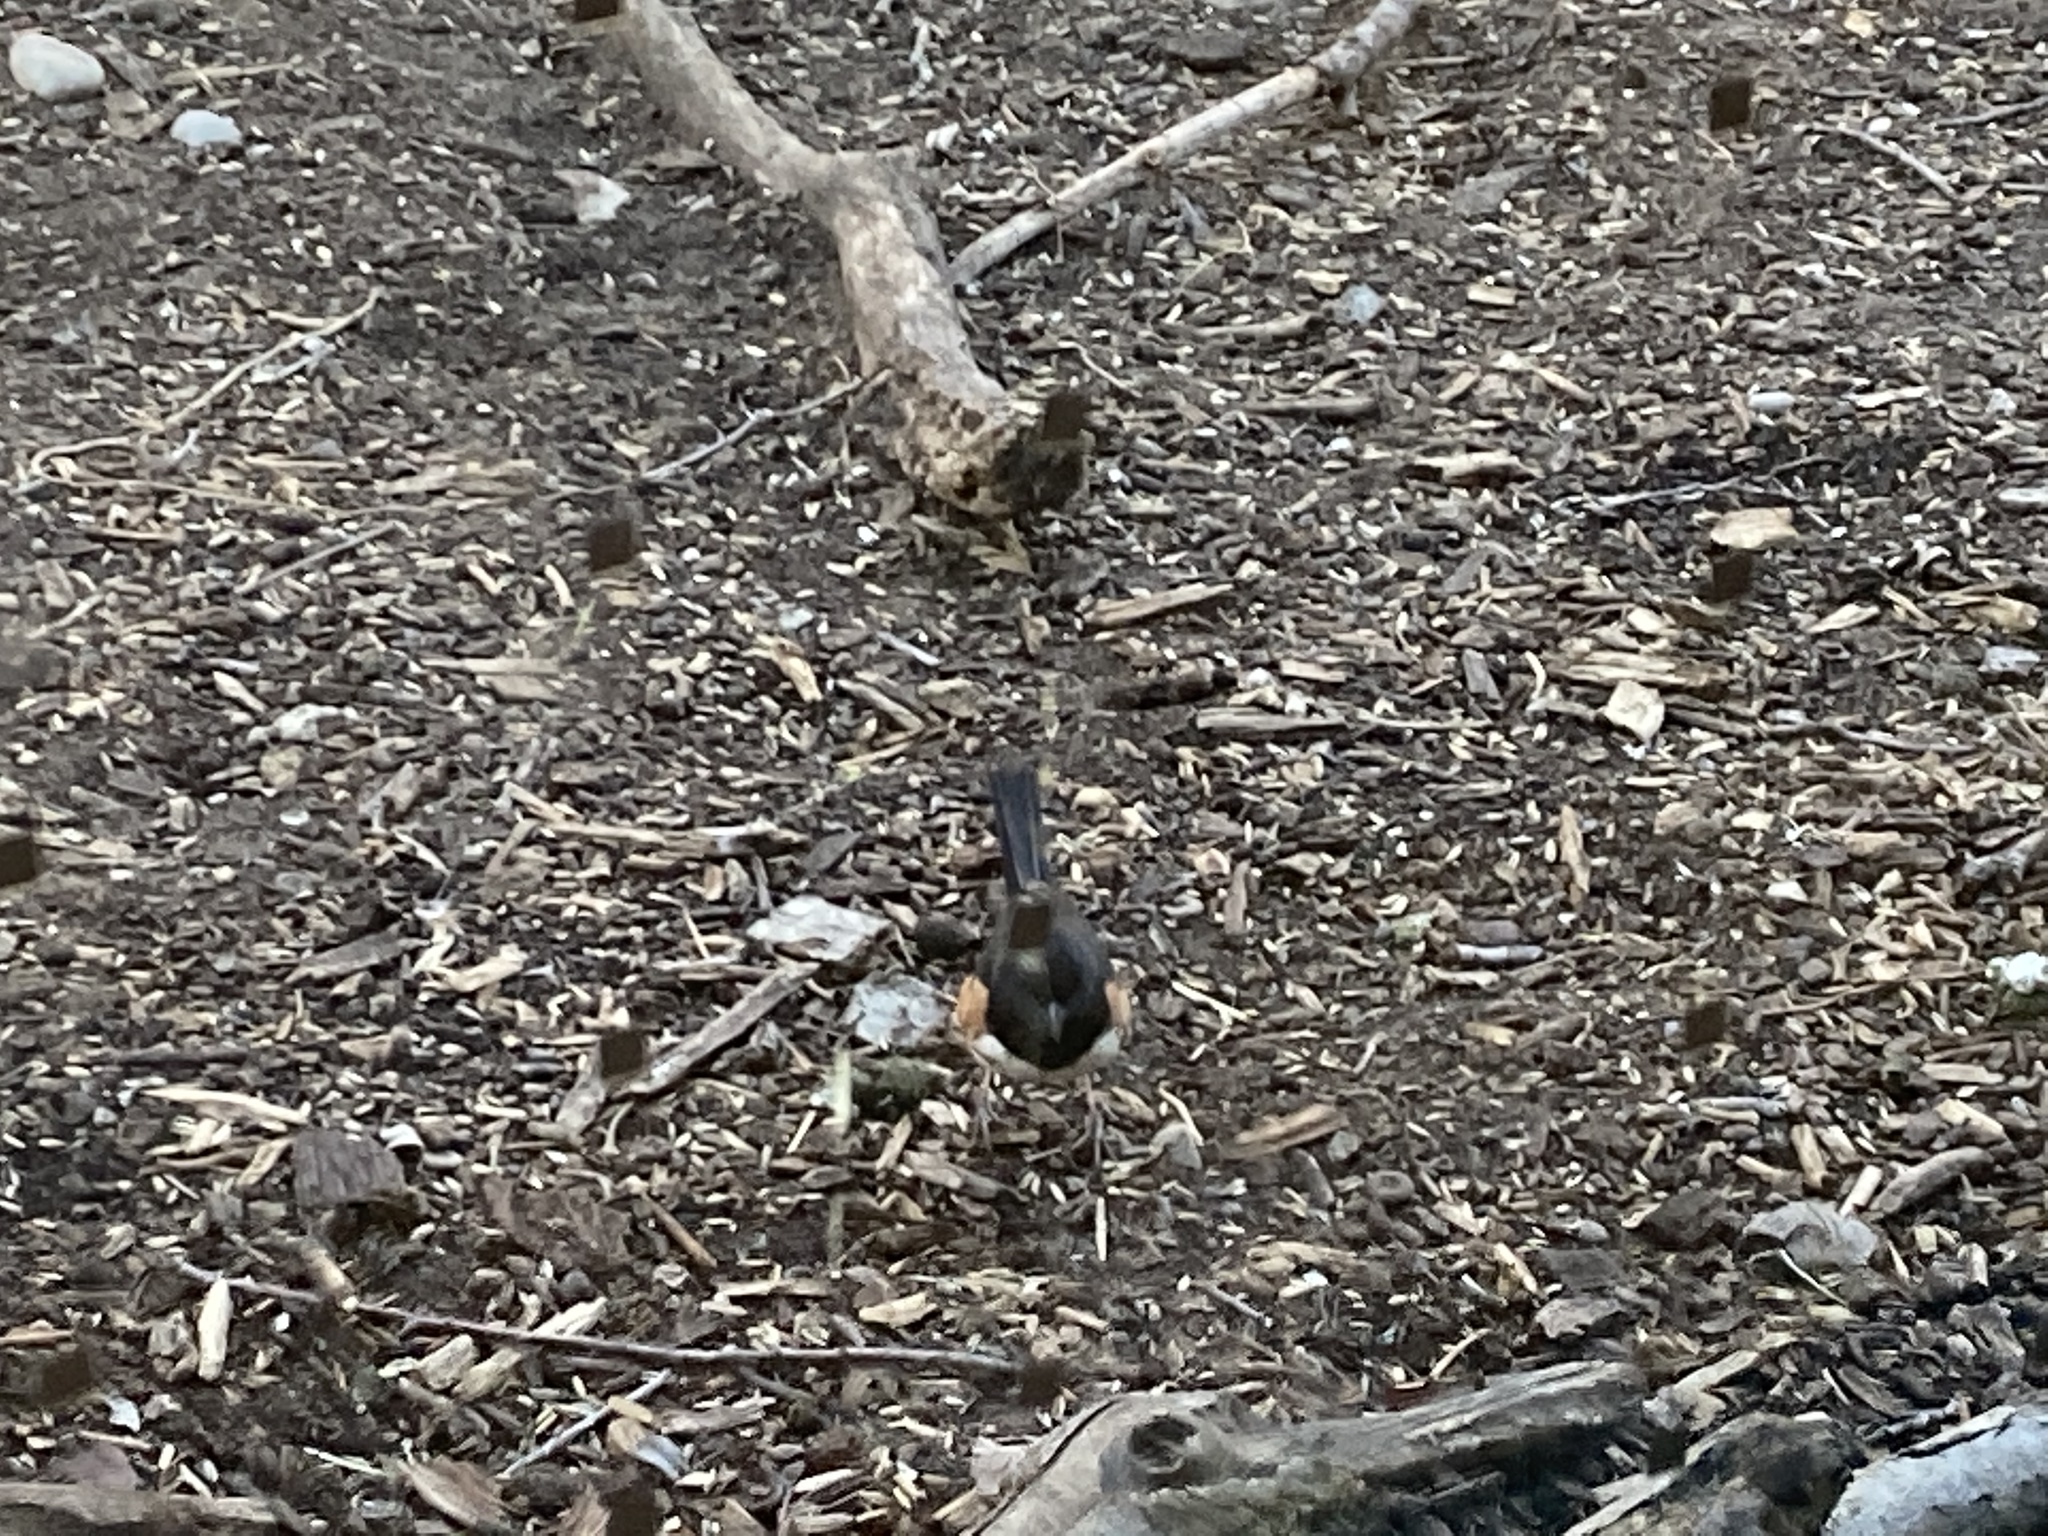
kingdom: Animalia
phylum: Chordata
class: Aves
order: Passeriformes
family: Passerellidae
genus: Pipilo
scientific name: Pipilo erythrophthalmus
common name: Eastern towhee
